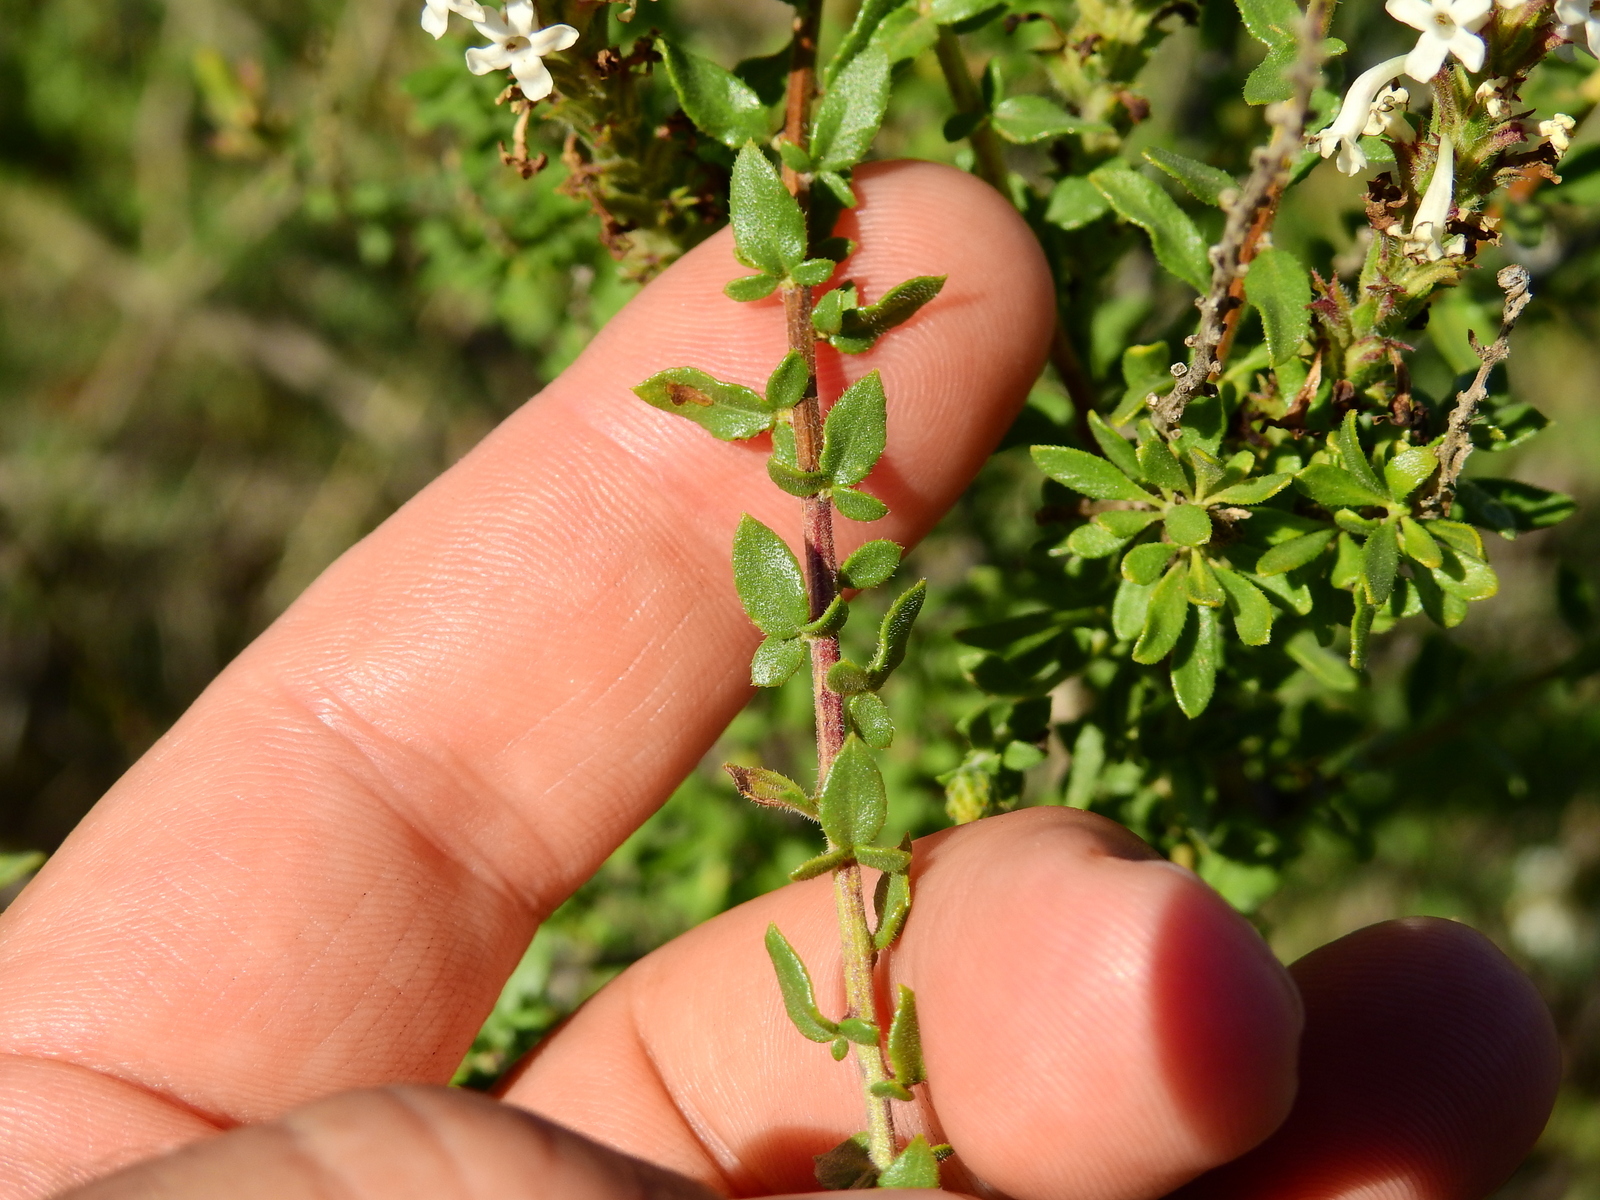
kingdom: Plantae
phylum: Tracheophyta
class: Magnoliopsida
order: Lamiales
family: Verbenaceae
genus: Mulguraea
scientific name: Mulguraea aspera
